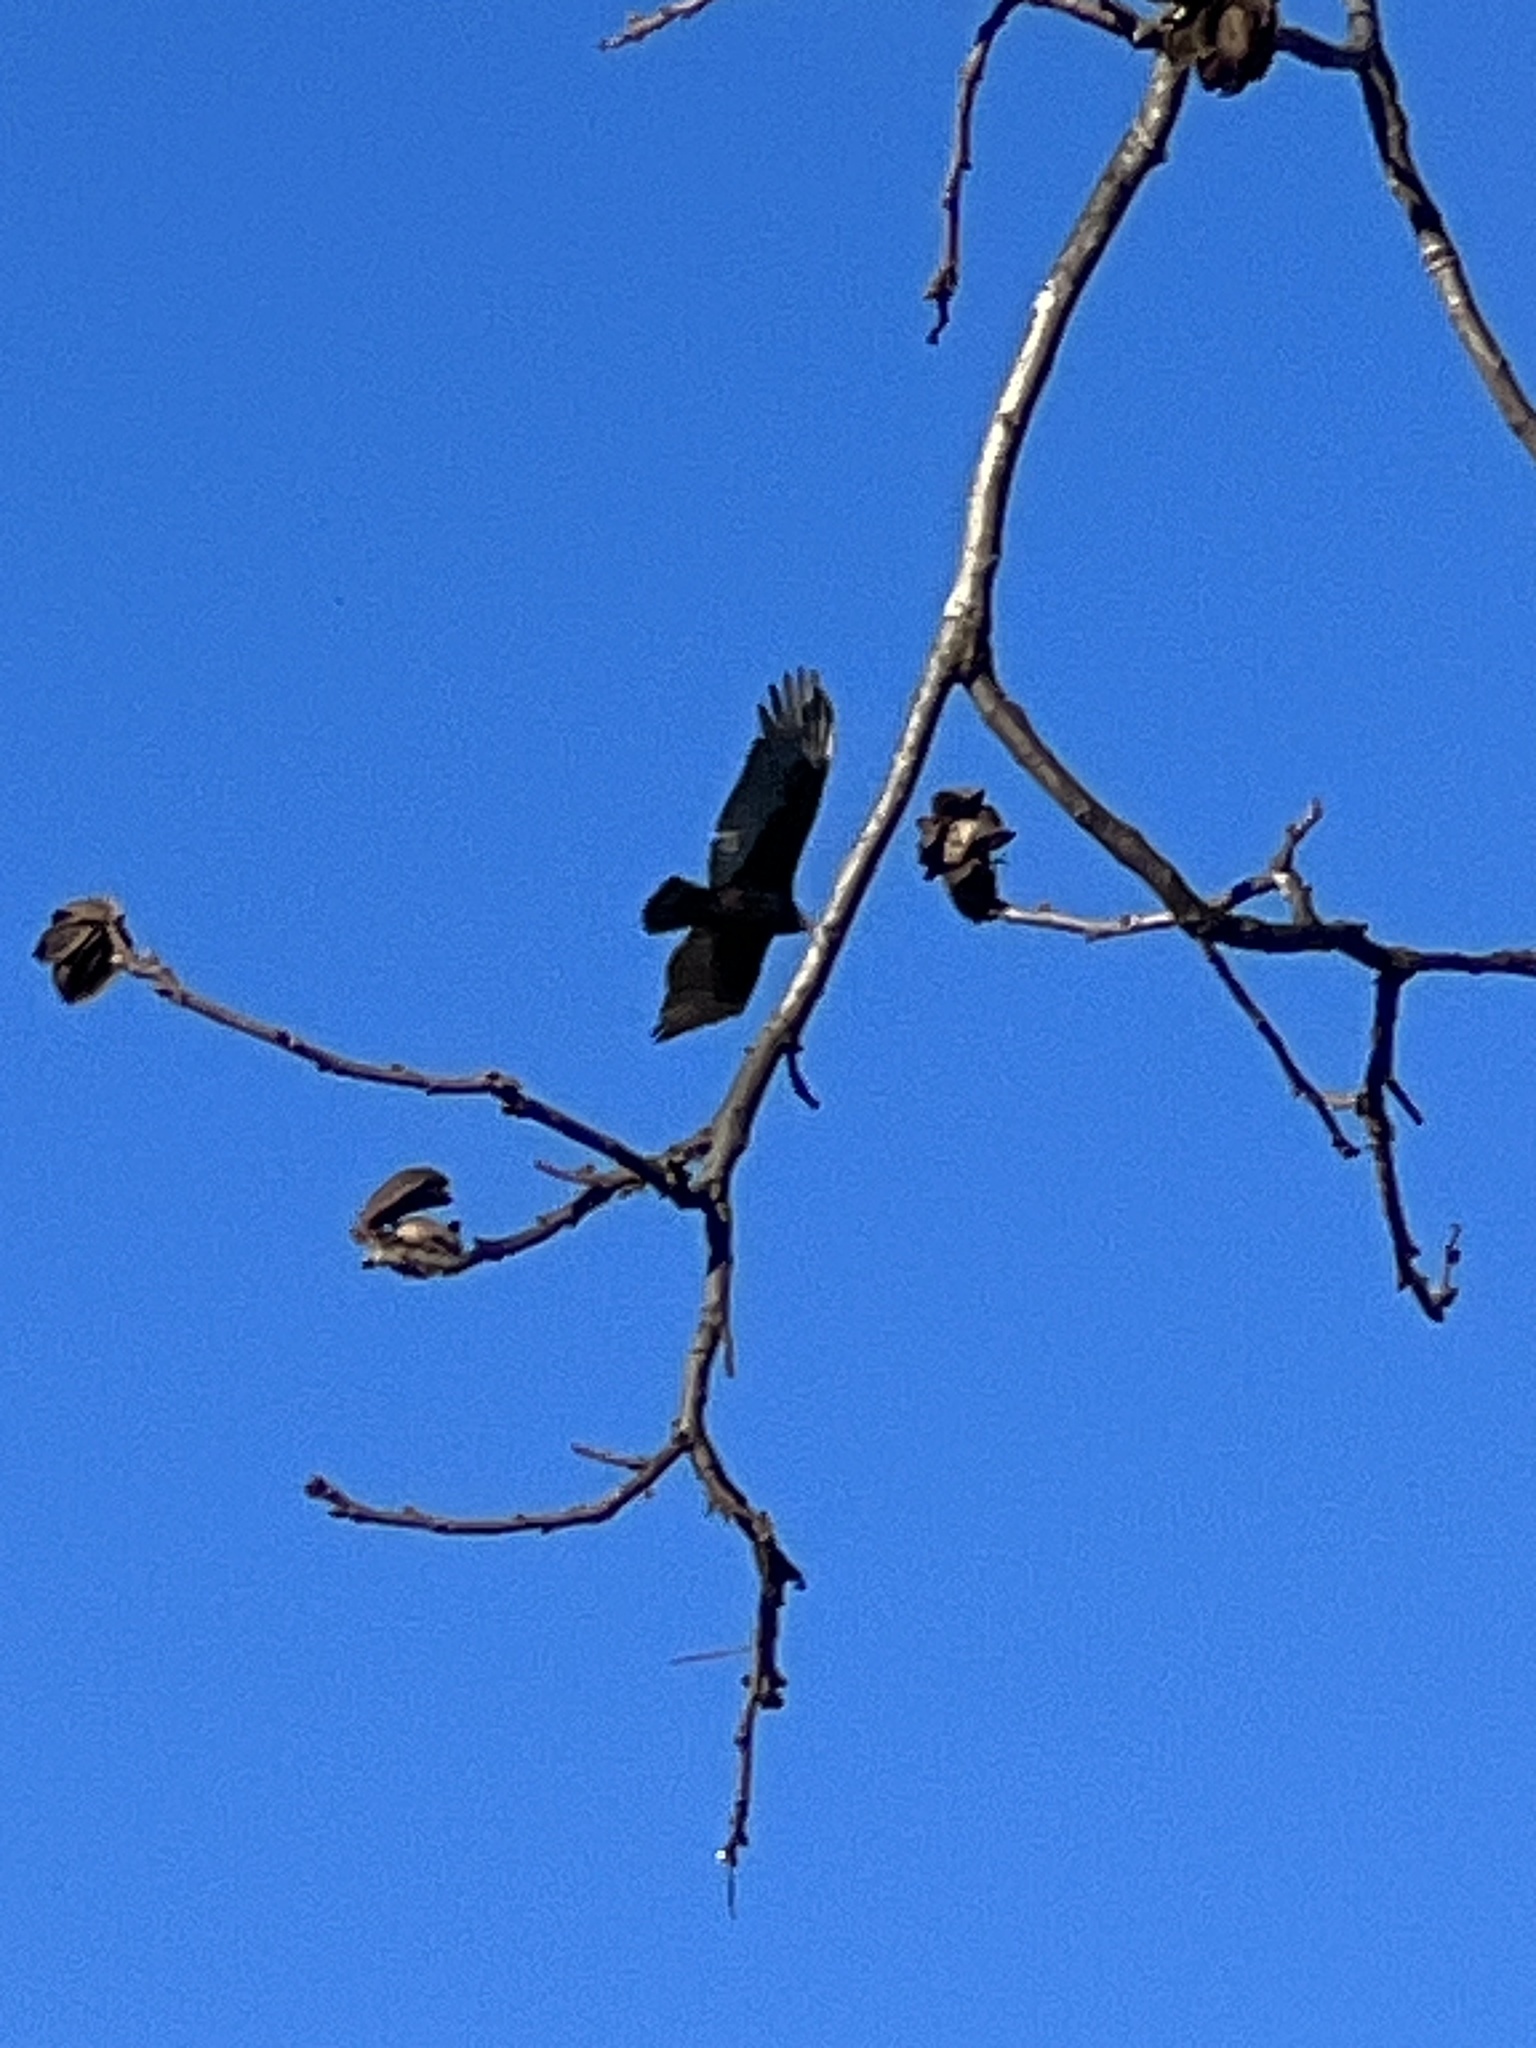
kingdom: Animalia
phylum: Chordata
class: Aves
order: Accipitriformes
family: Cathartidae
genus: Cathartes
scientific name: Cathartes aura
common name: Turkey vulture
